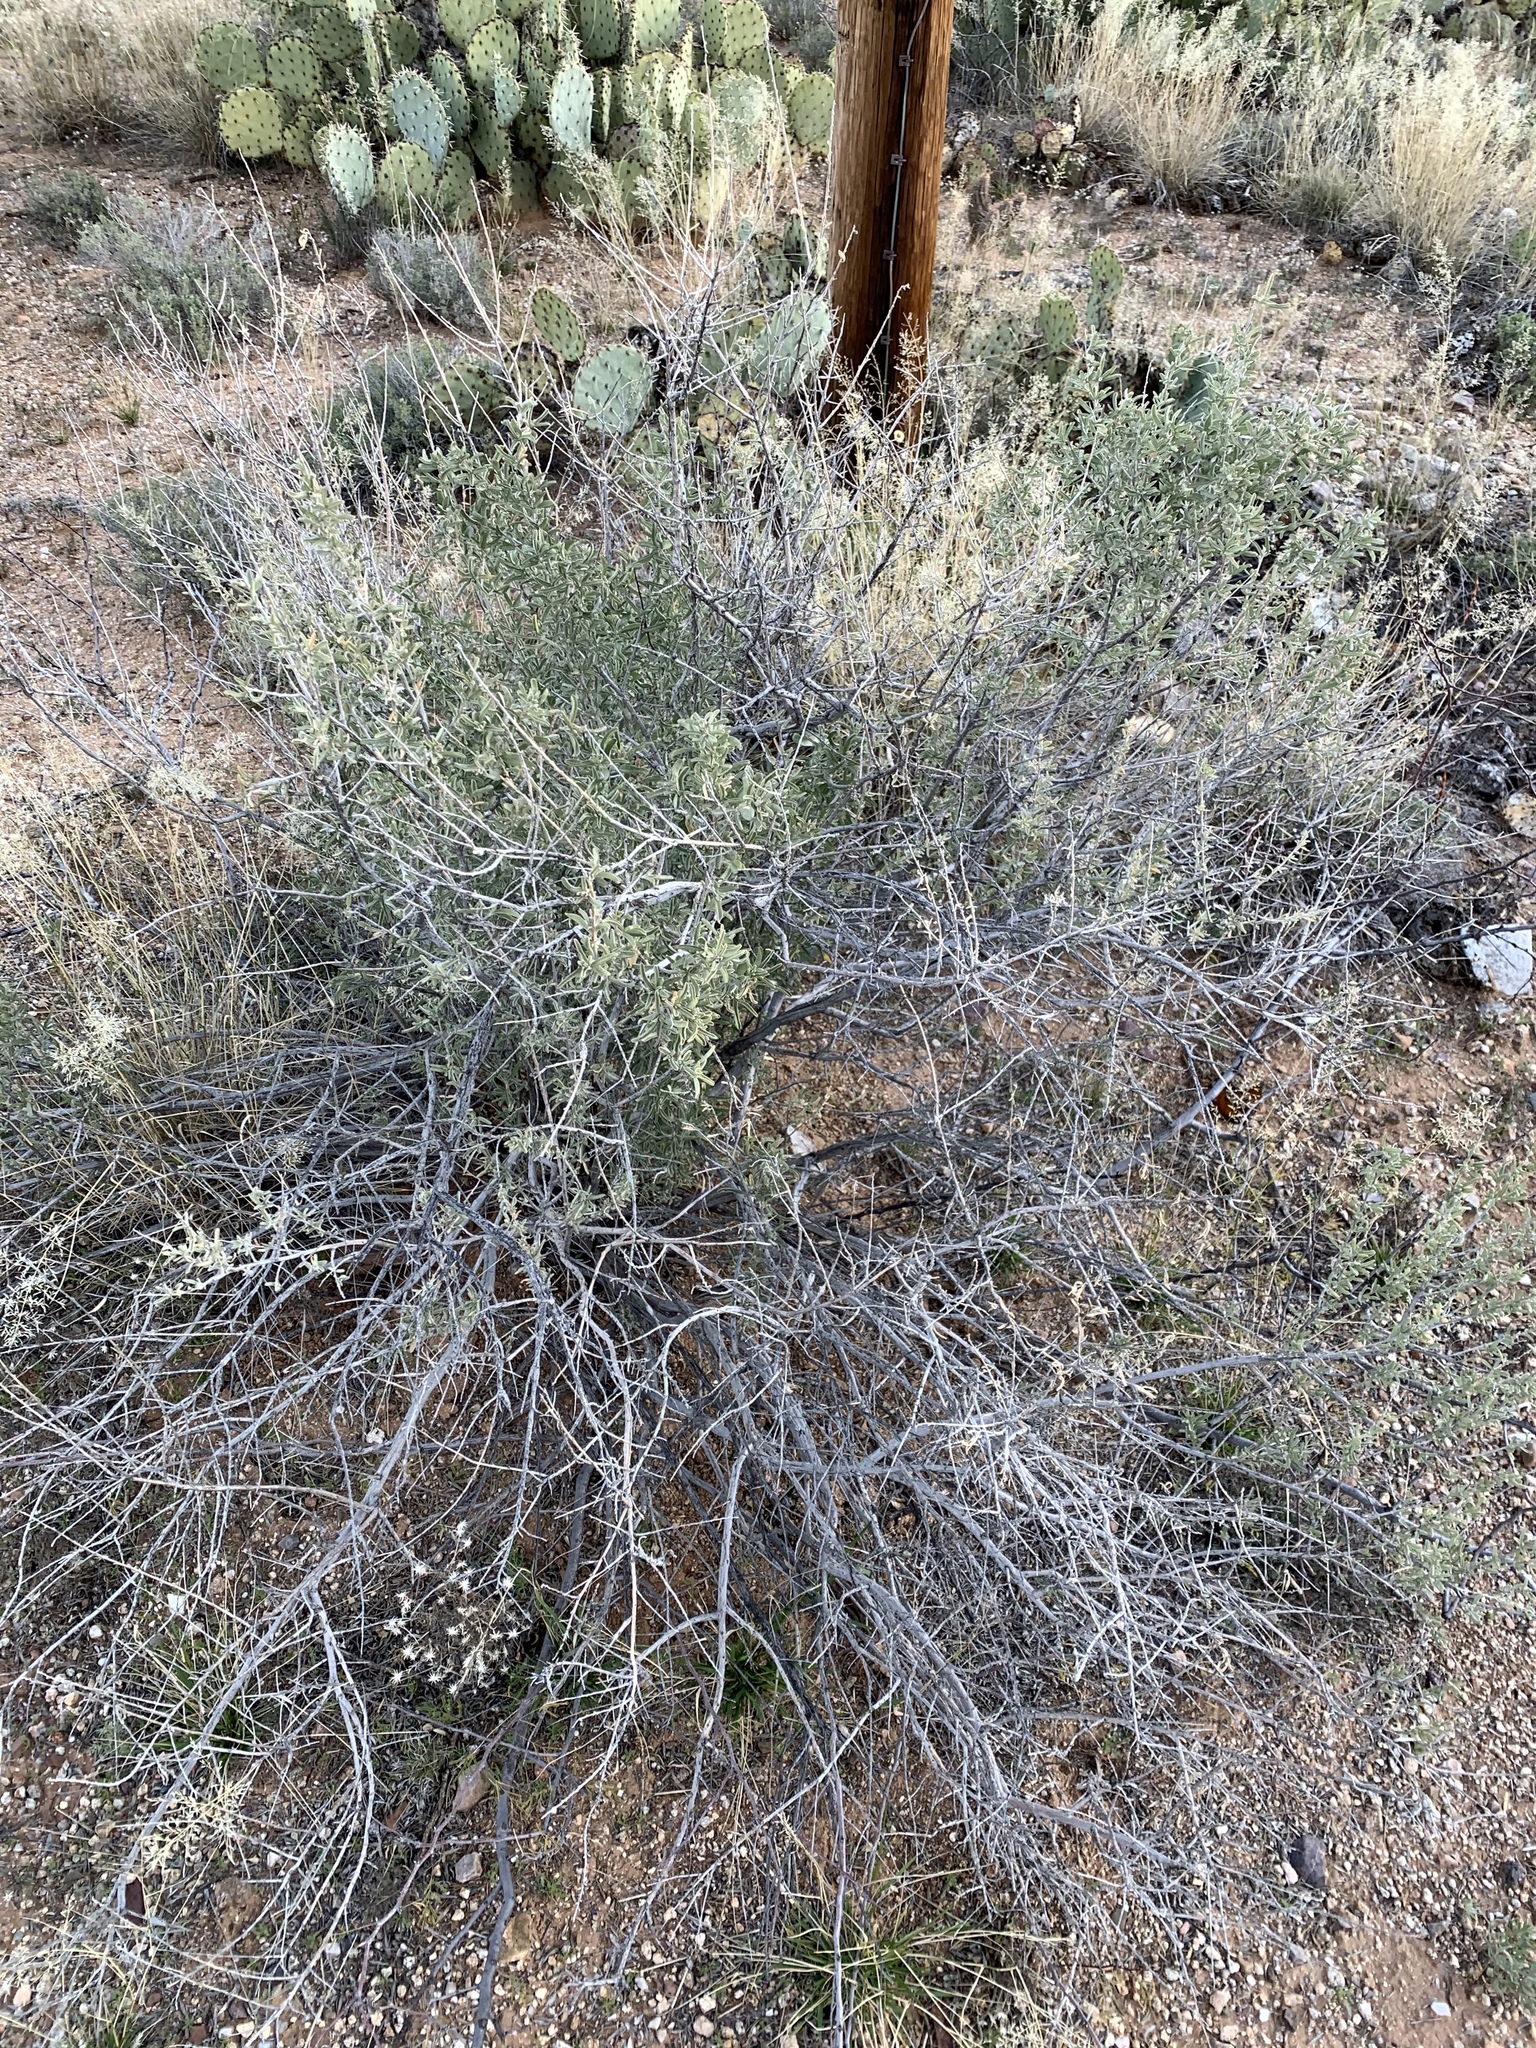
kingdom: Plantae
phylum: Tracheophyta
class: Magnoliopsida
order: Caryophyllales
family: Amaranthaceae
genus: Atriplex
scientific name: Atriplex canescens
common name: Four-wing saltbush
